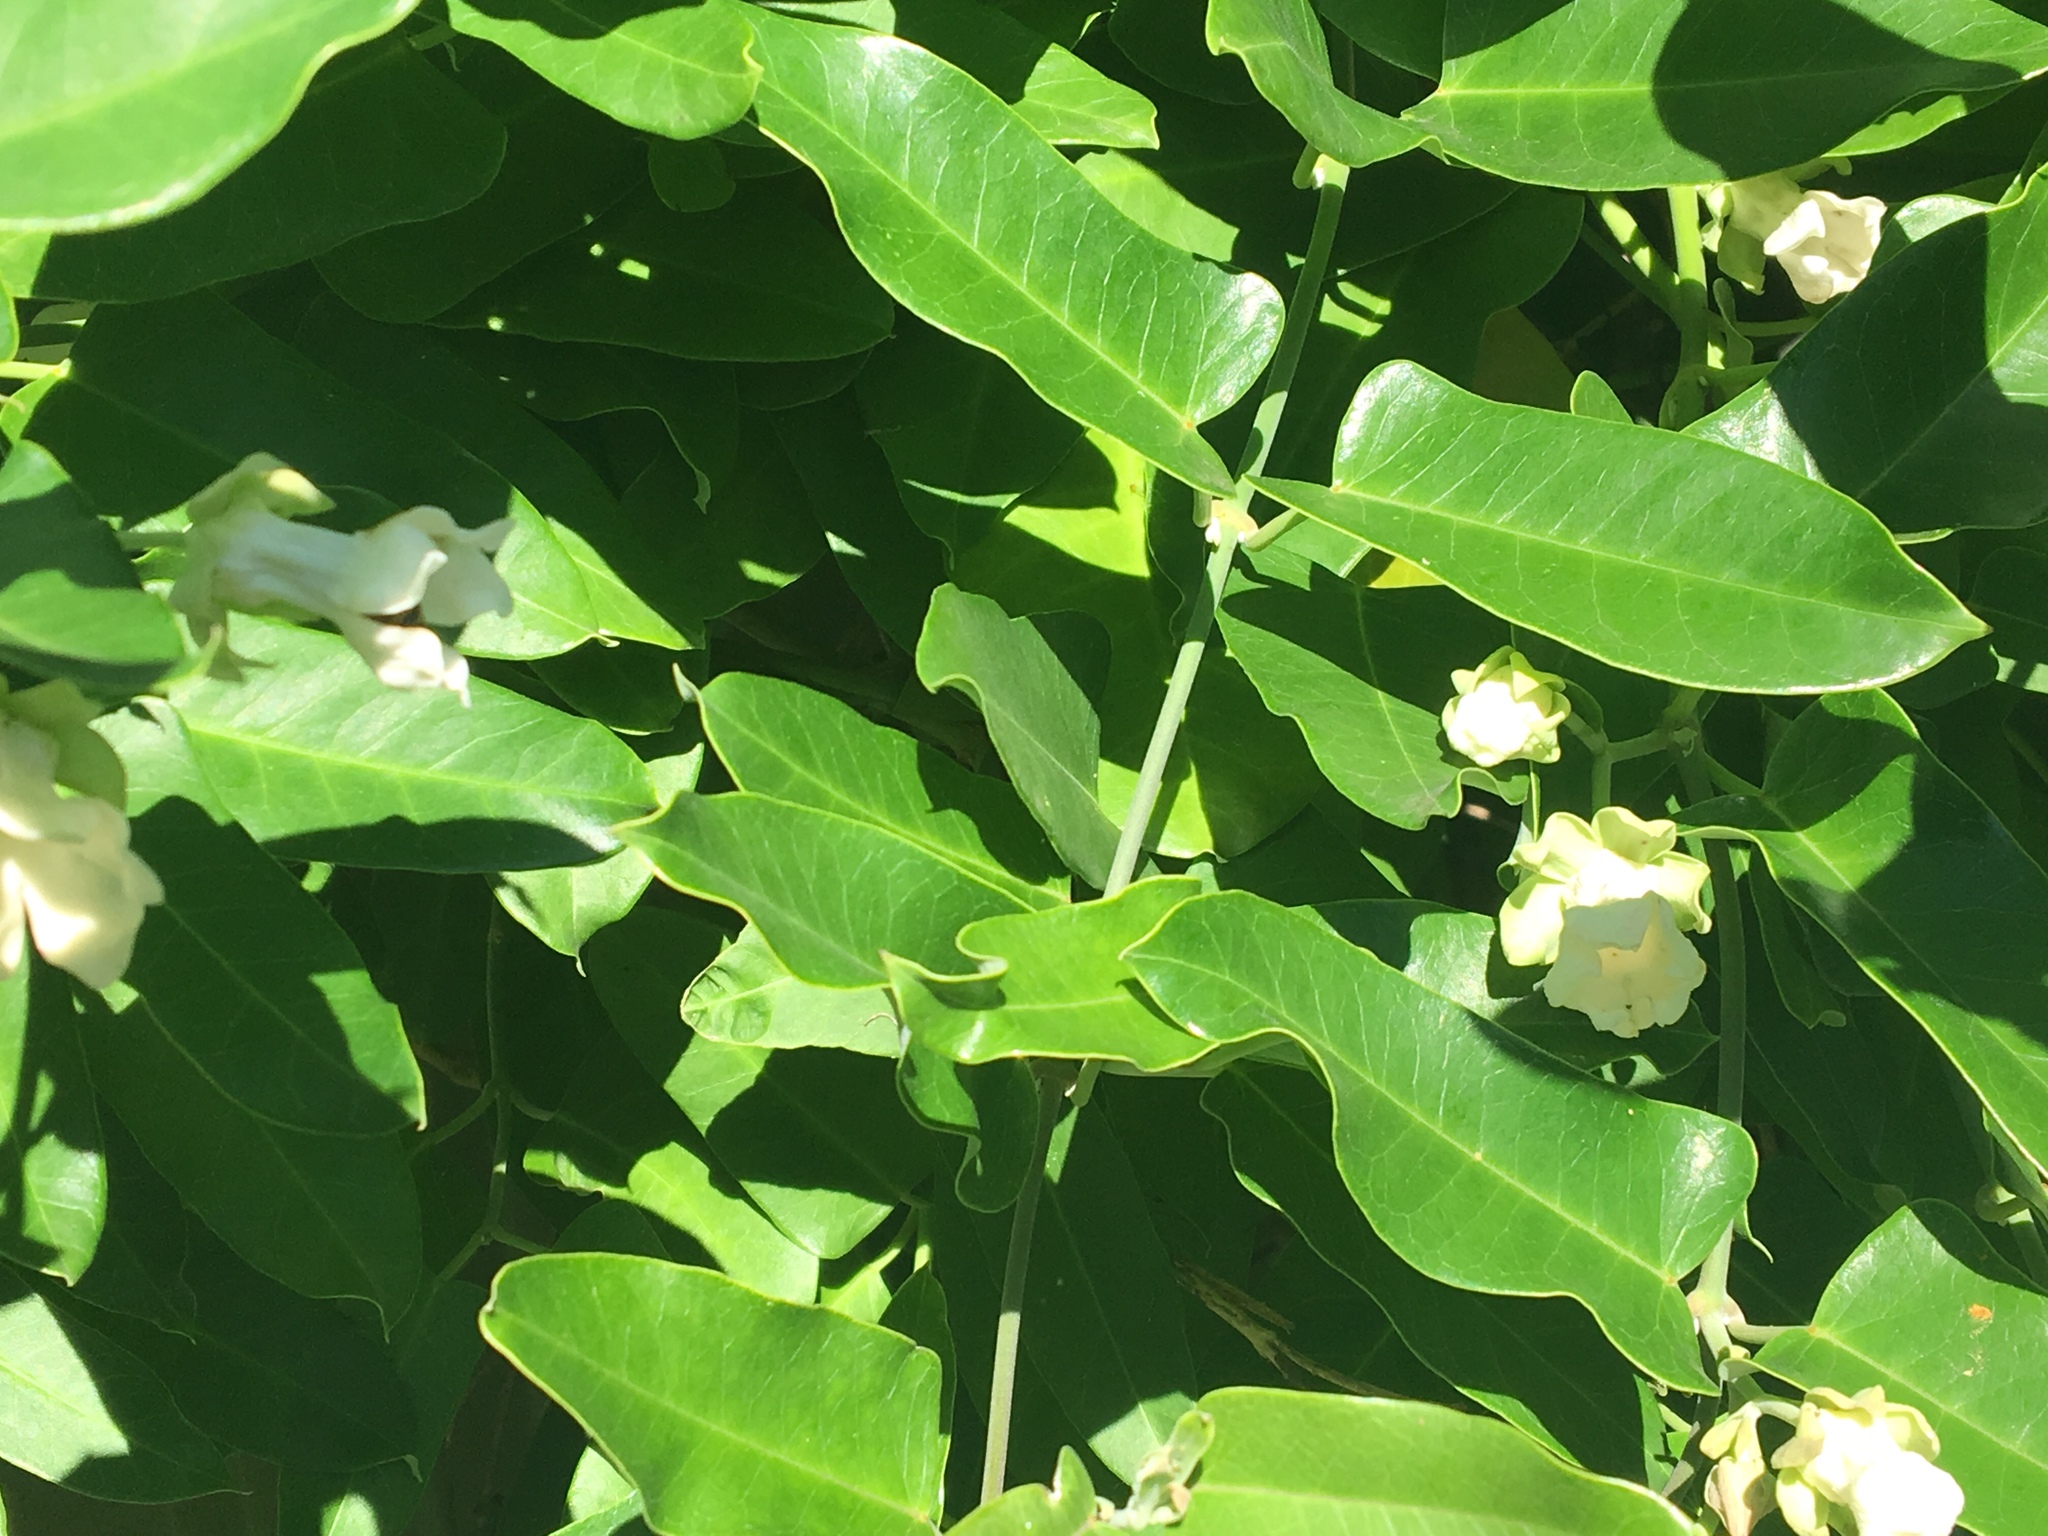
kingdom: Plantae
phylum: Tracheophyta
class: Magnoliopsida
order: Gentianales
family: Apocynaceae
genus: Araujia
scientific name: Araujia sericifera
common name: White bladderflower
